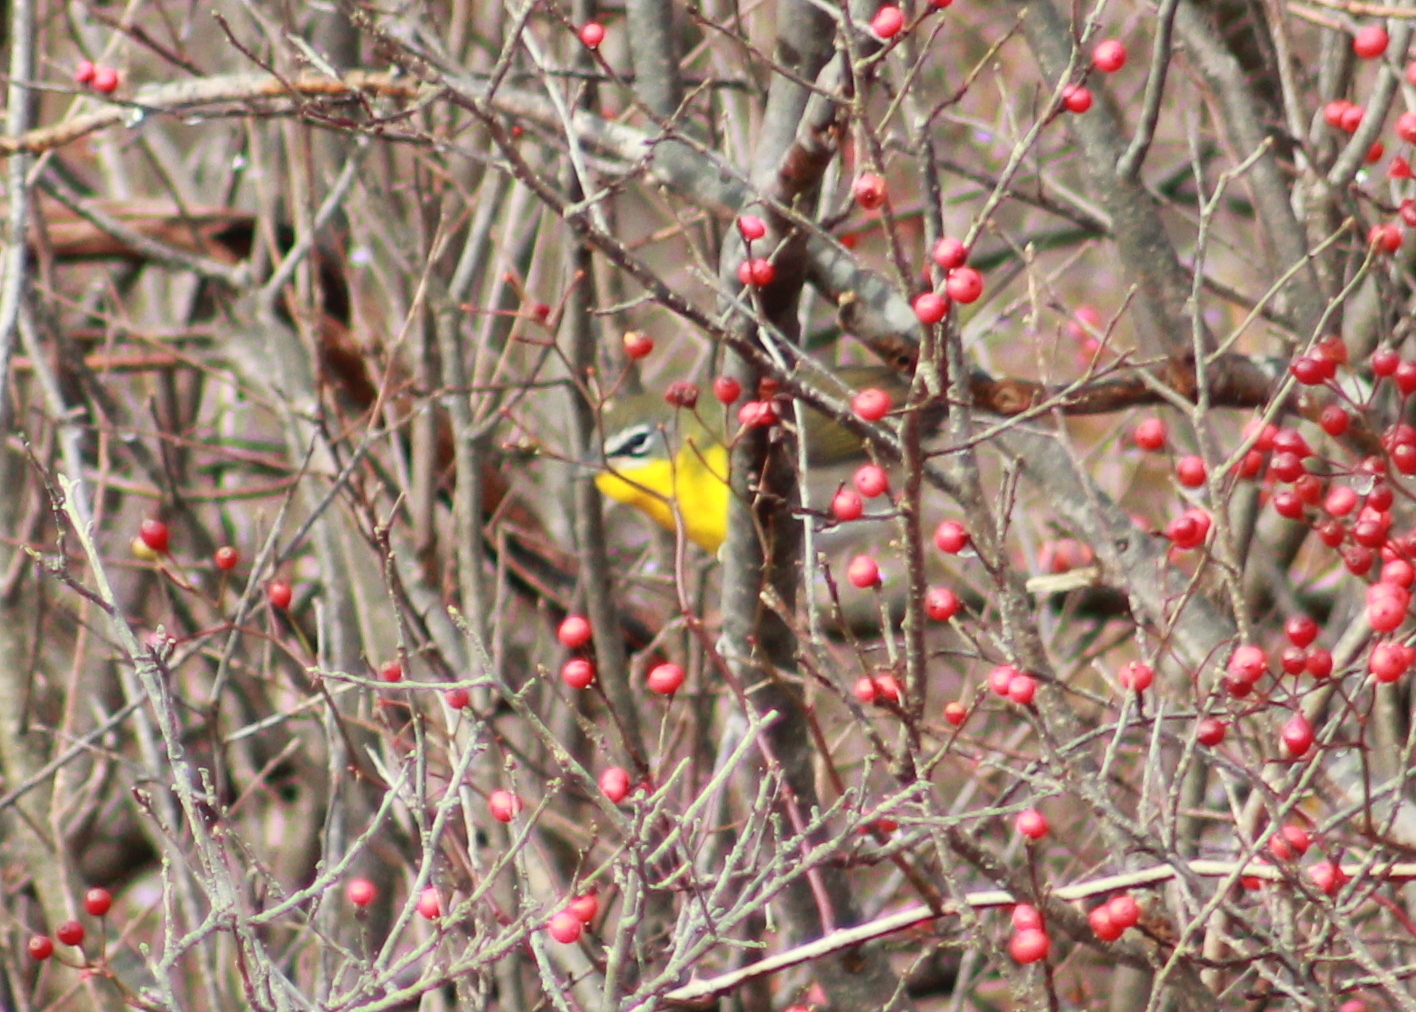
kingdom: Animalia
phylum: Chordata
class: Aves
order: Passeriformes
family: Parulidae
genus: Icteria
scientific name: Icteria virens
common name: Yellow-breasted chat
